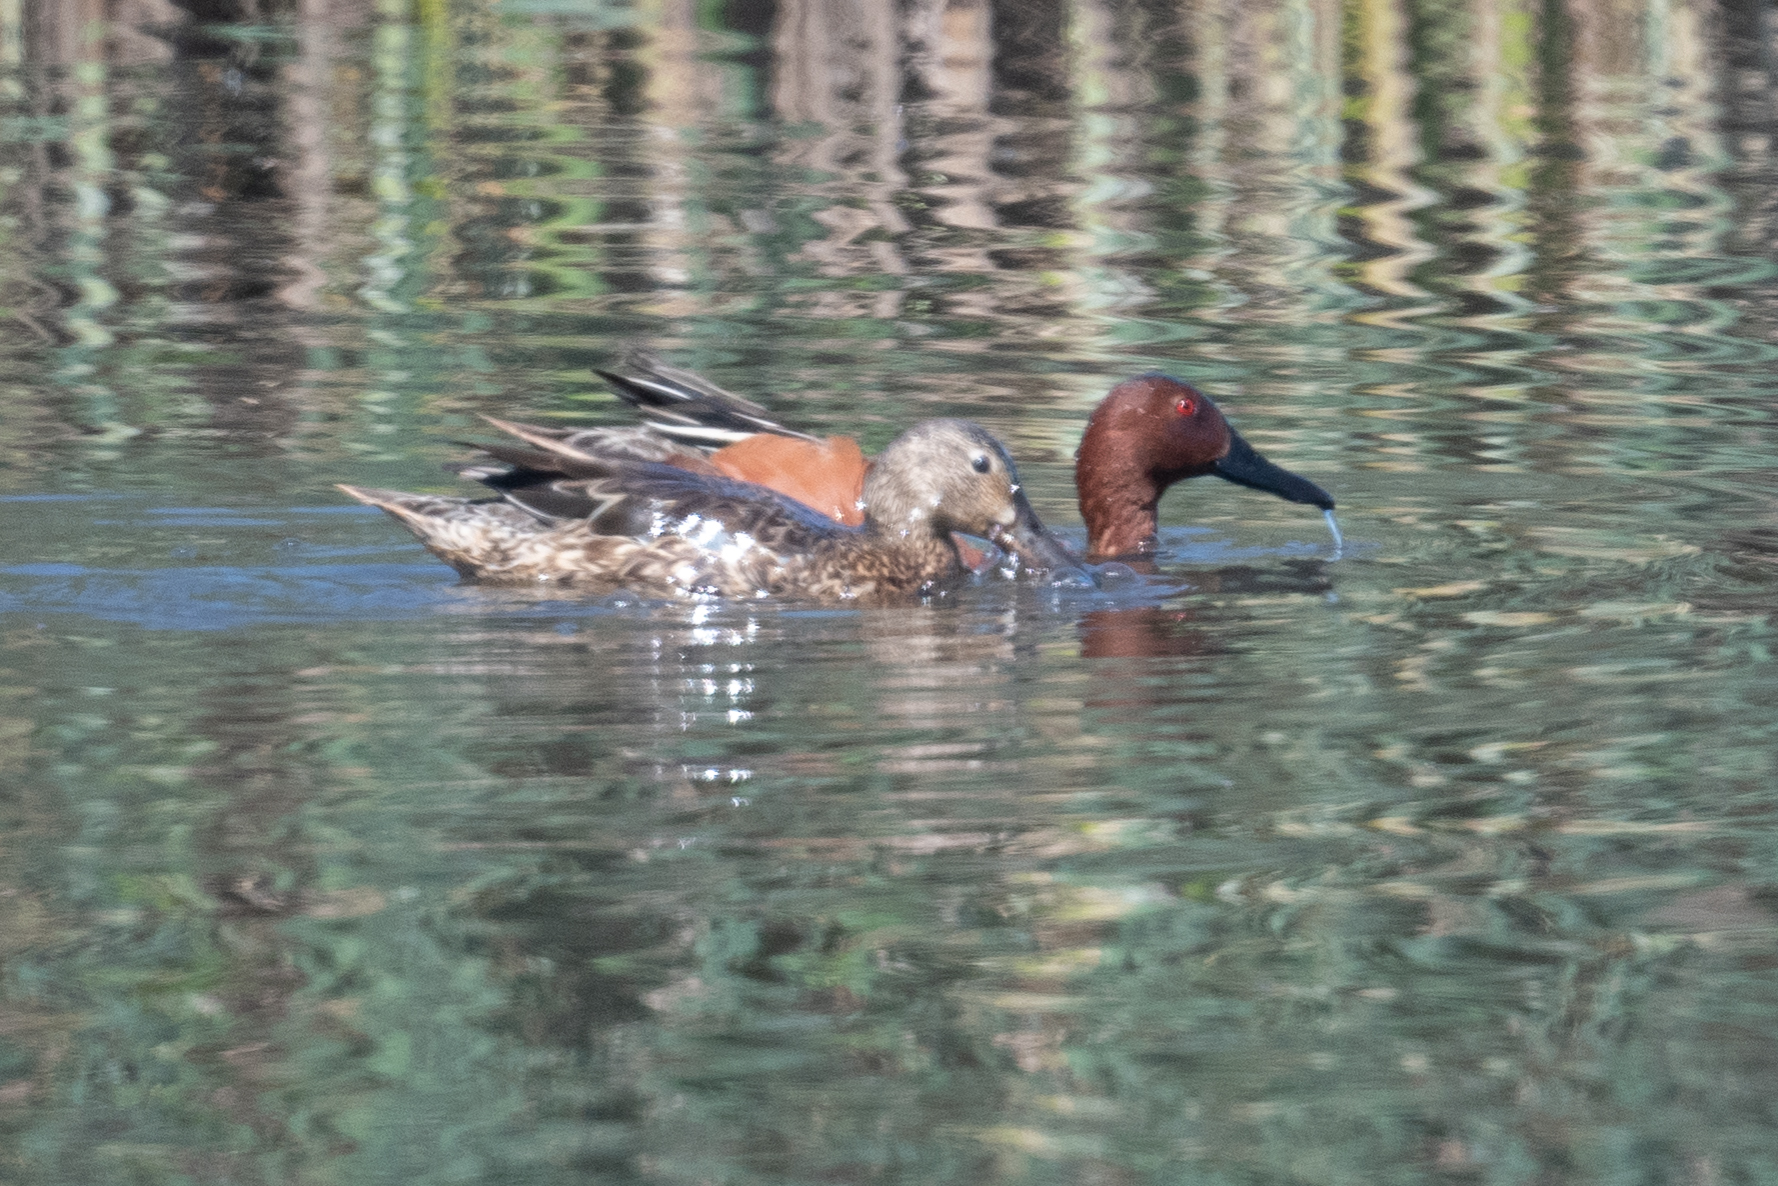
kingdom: Animalia
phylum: Chordata
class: Aves
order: Anseriformes
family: Anatidae
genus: Spatula
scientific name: Spatula cyanoptera
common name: Cinnamon teal
